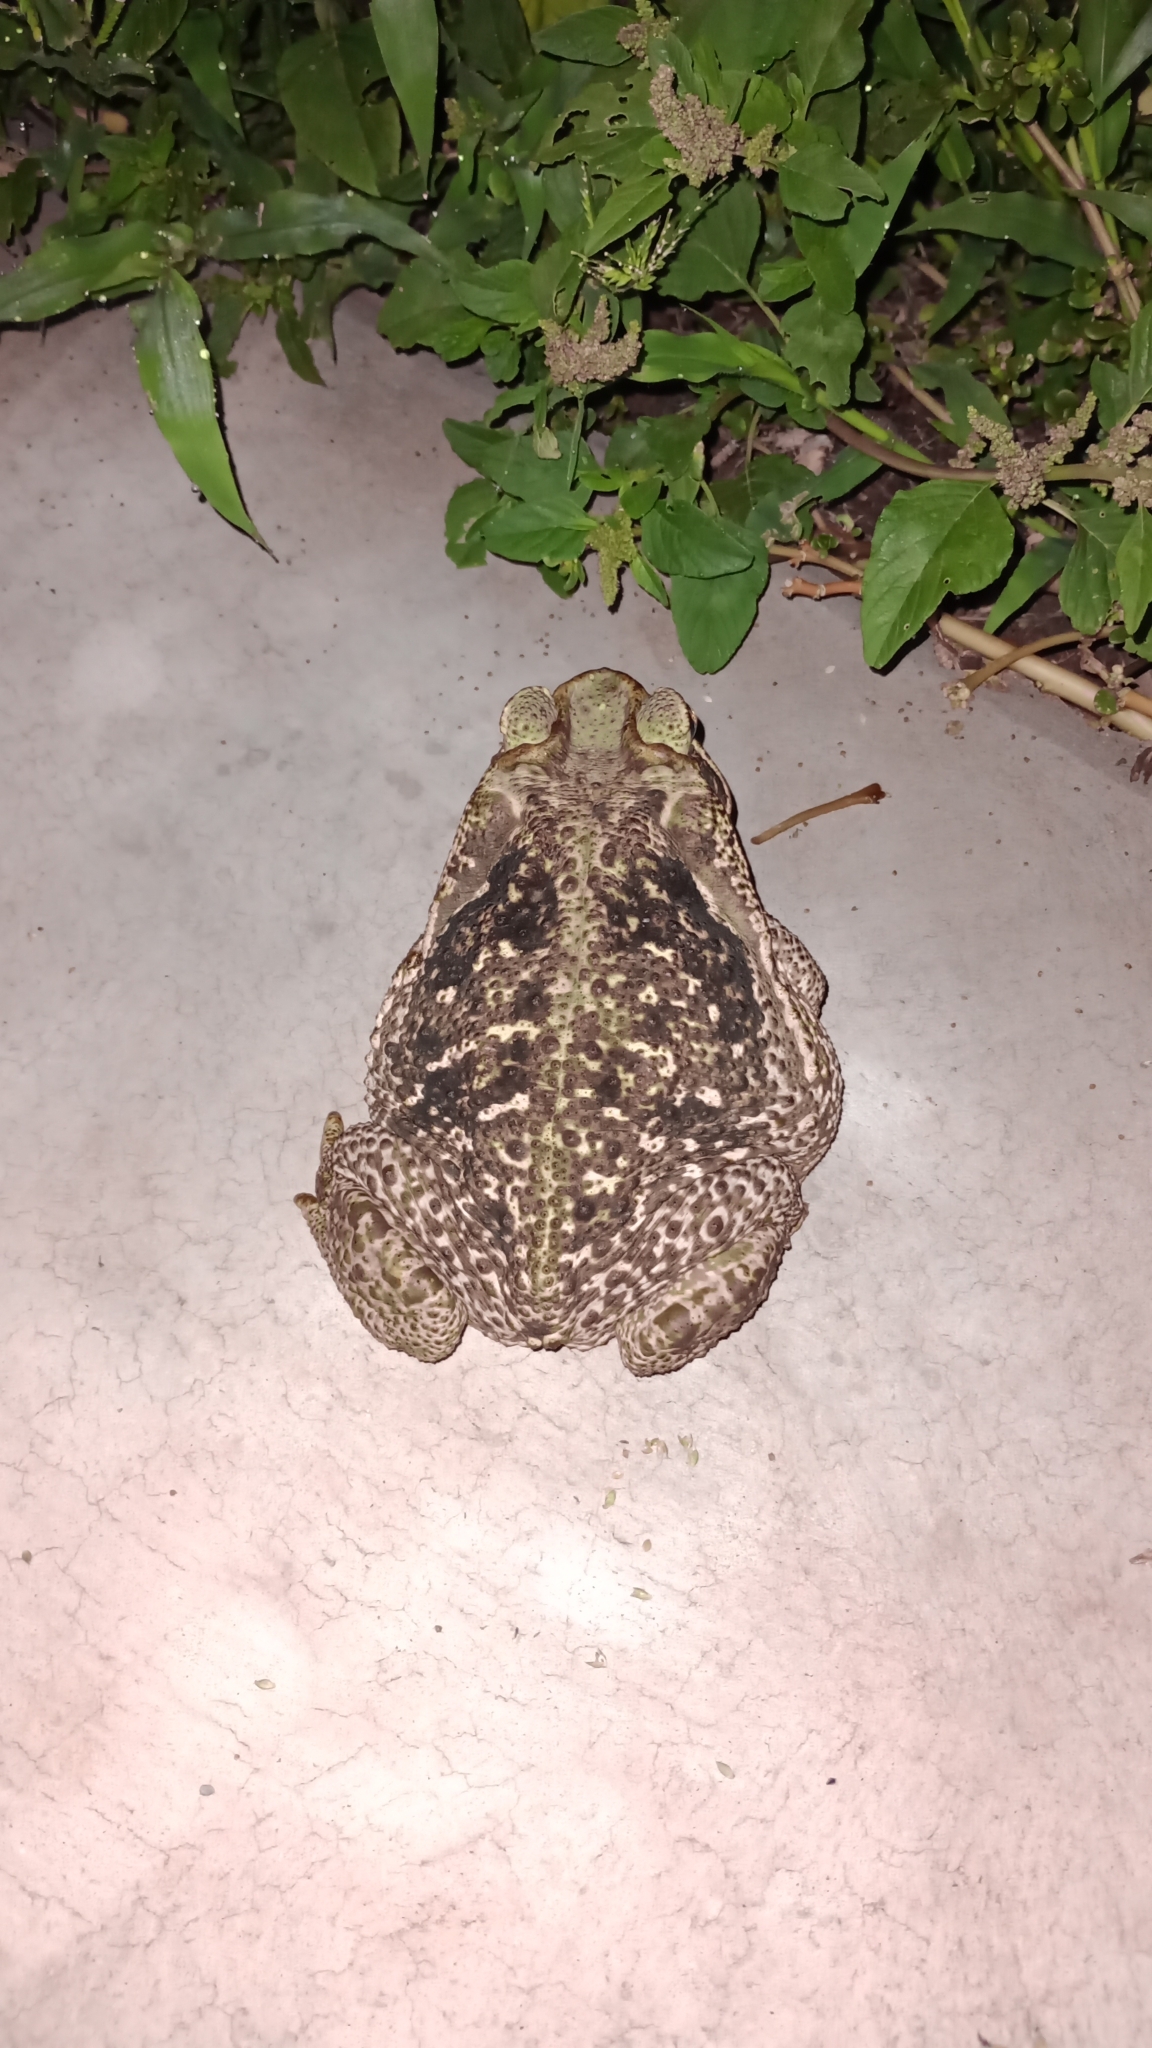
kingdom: Animalia
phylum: Chordata
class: Amphibia
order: Anura
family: Bufonidae
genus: Rhinella
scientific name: Rhinella diptycha
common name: Cope's toad
